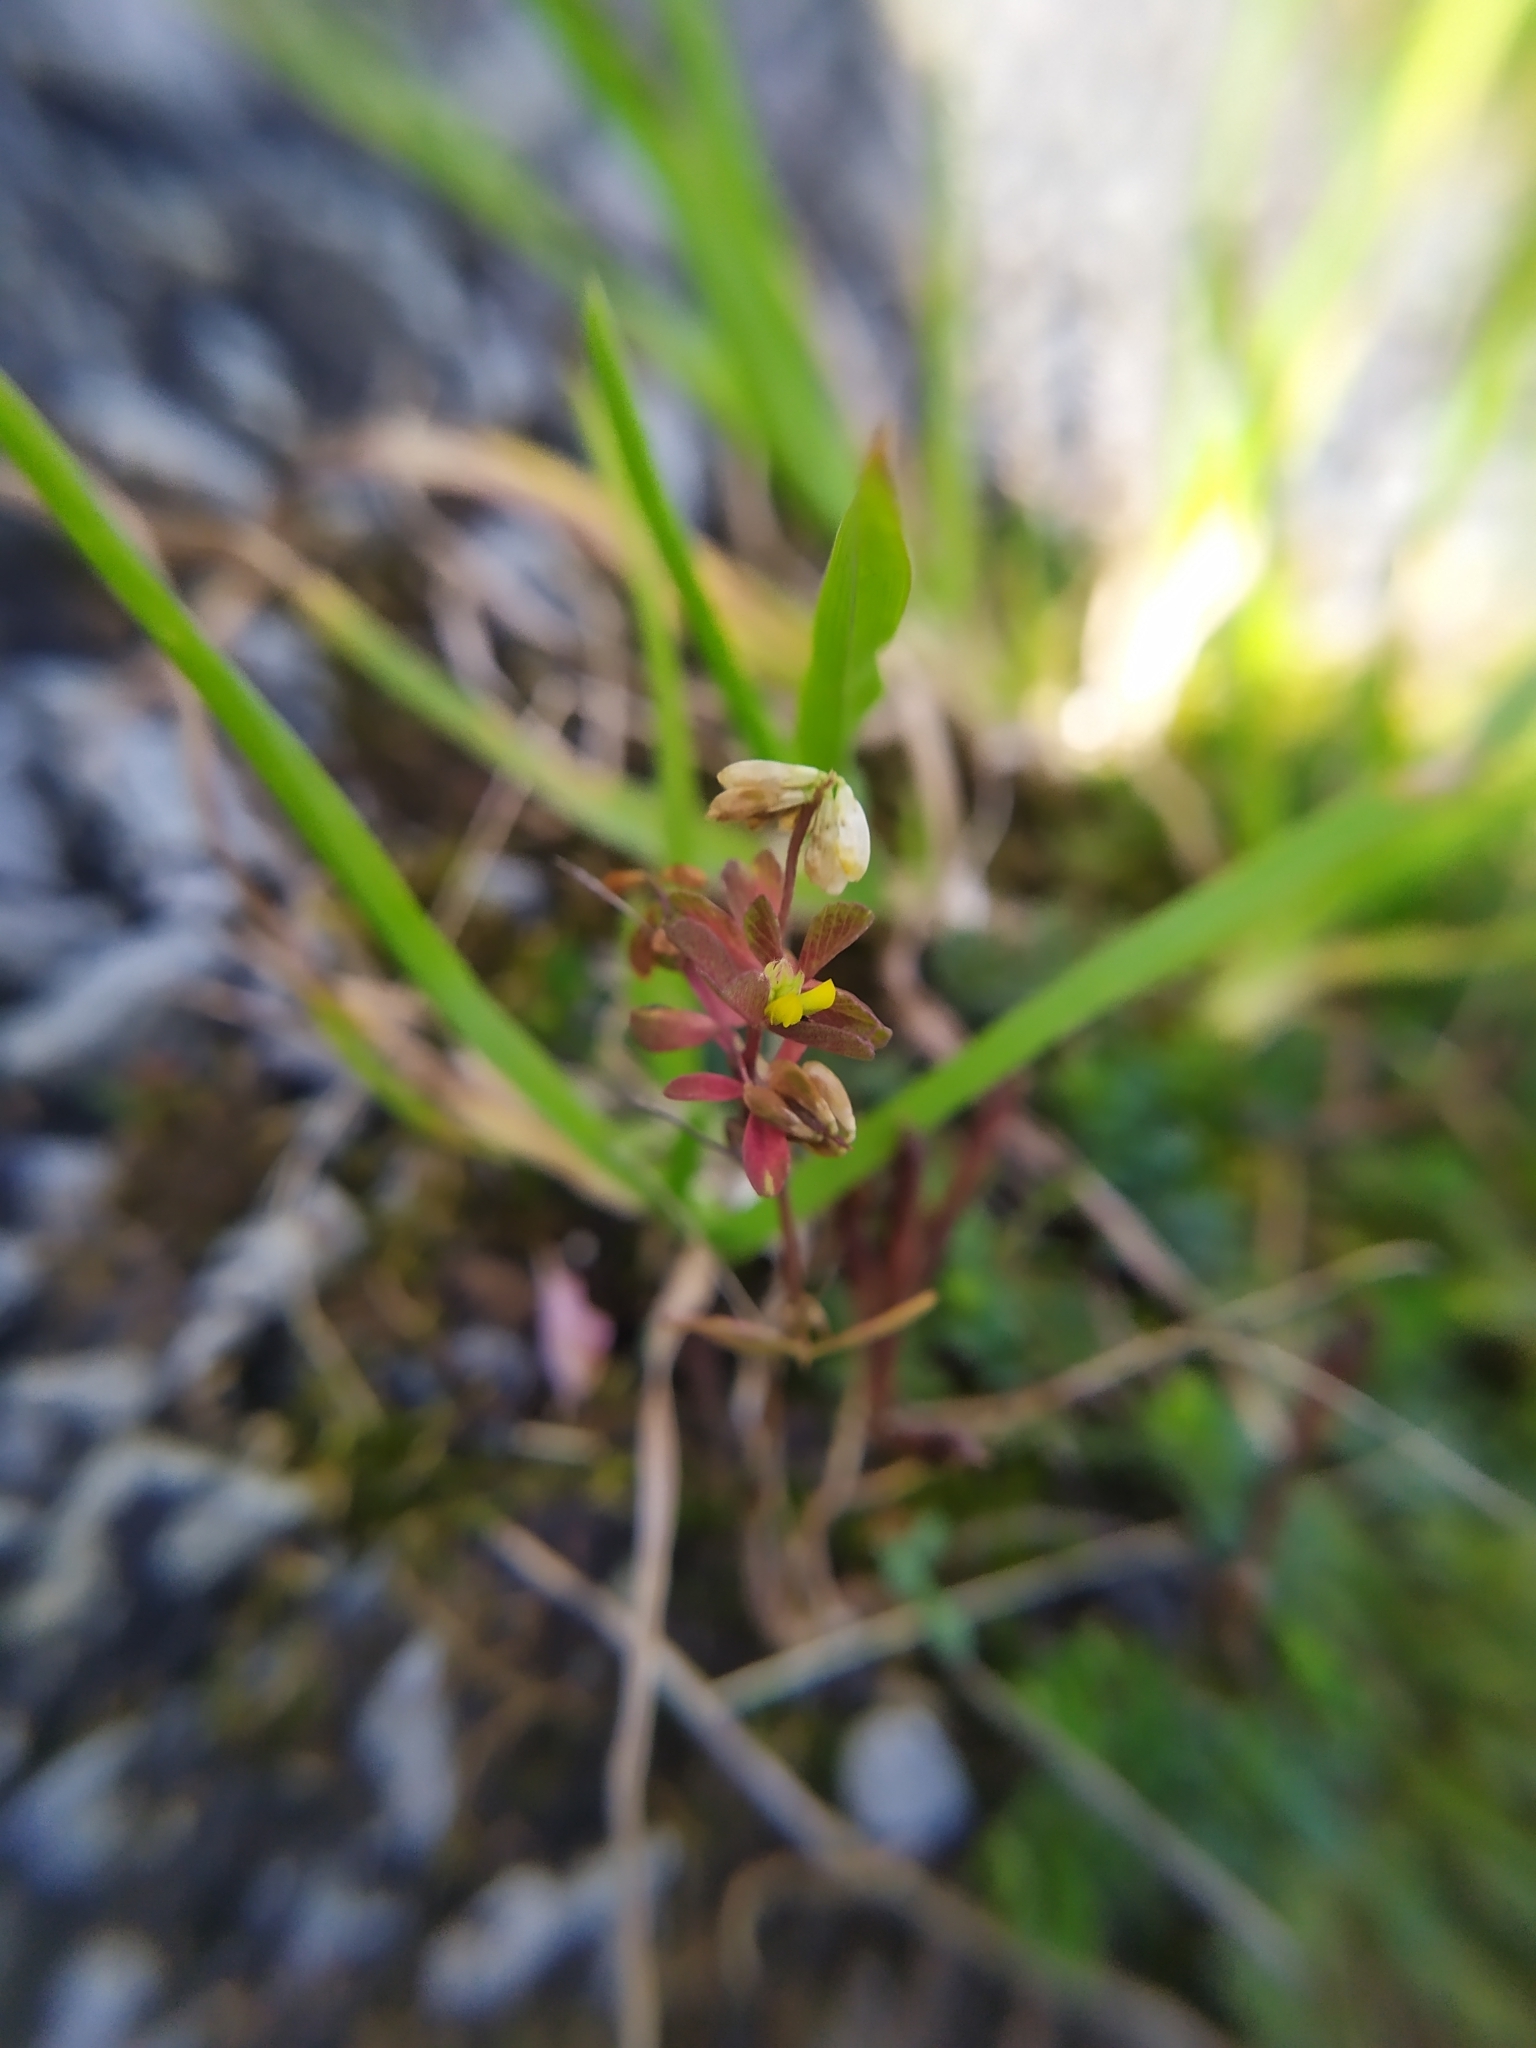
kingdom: Plantae
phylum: Tracheophyta
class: Magnoliopsida
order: Fabales
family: Fabaceae
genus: Trifolium
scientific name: Trifolium dubium
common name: Suckling clover
